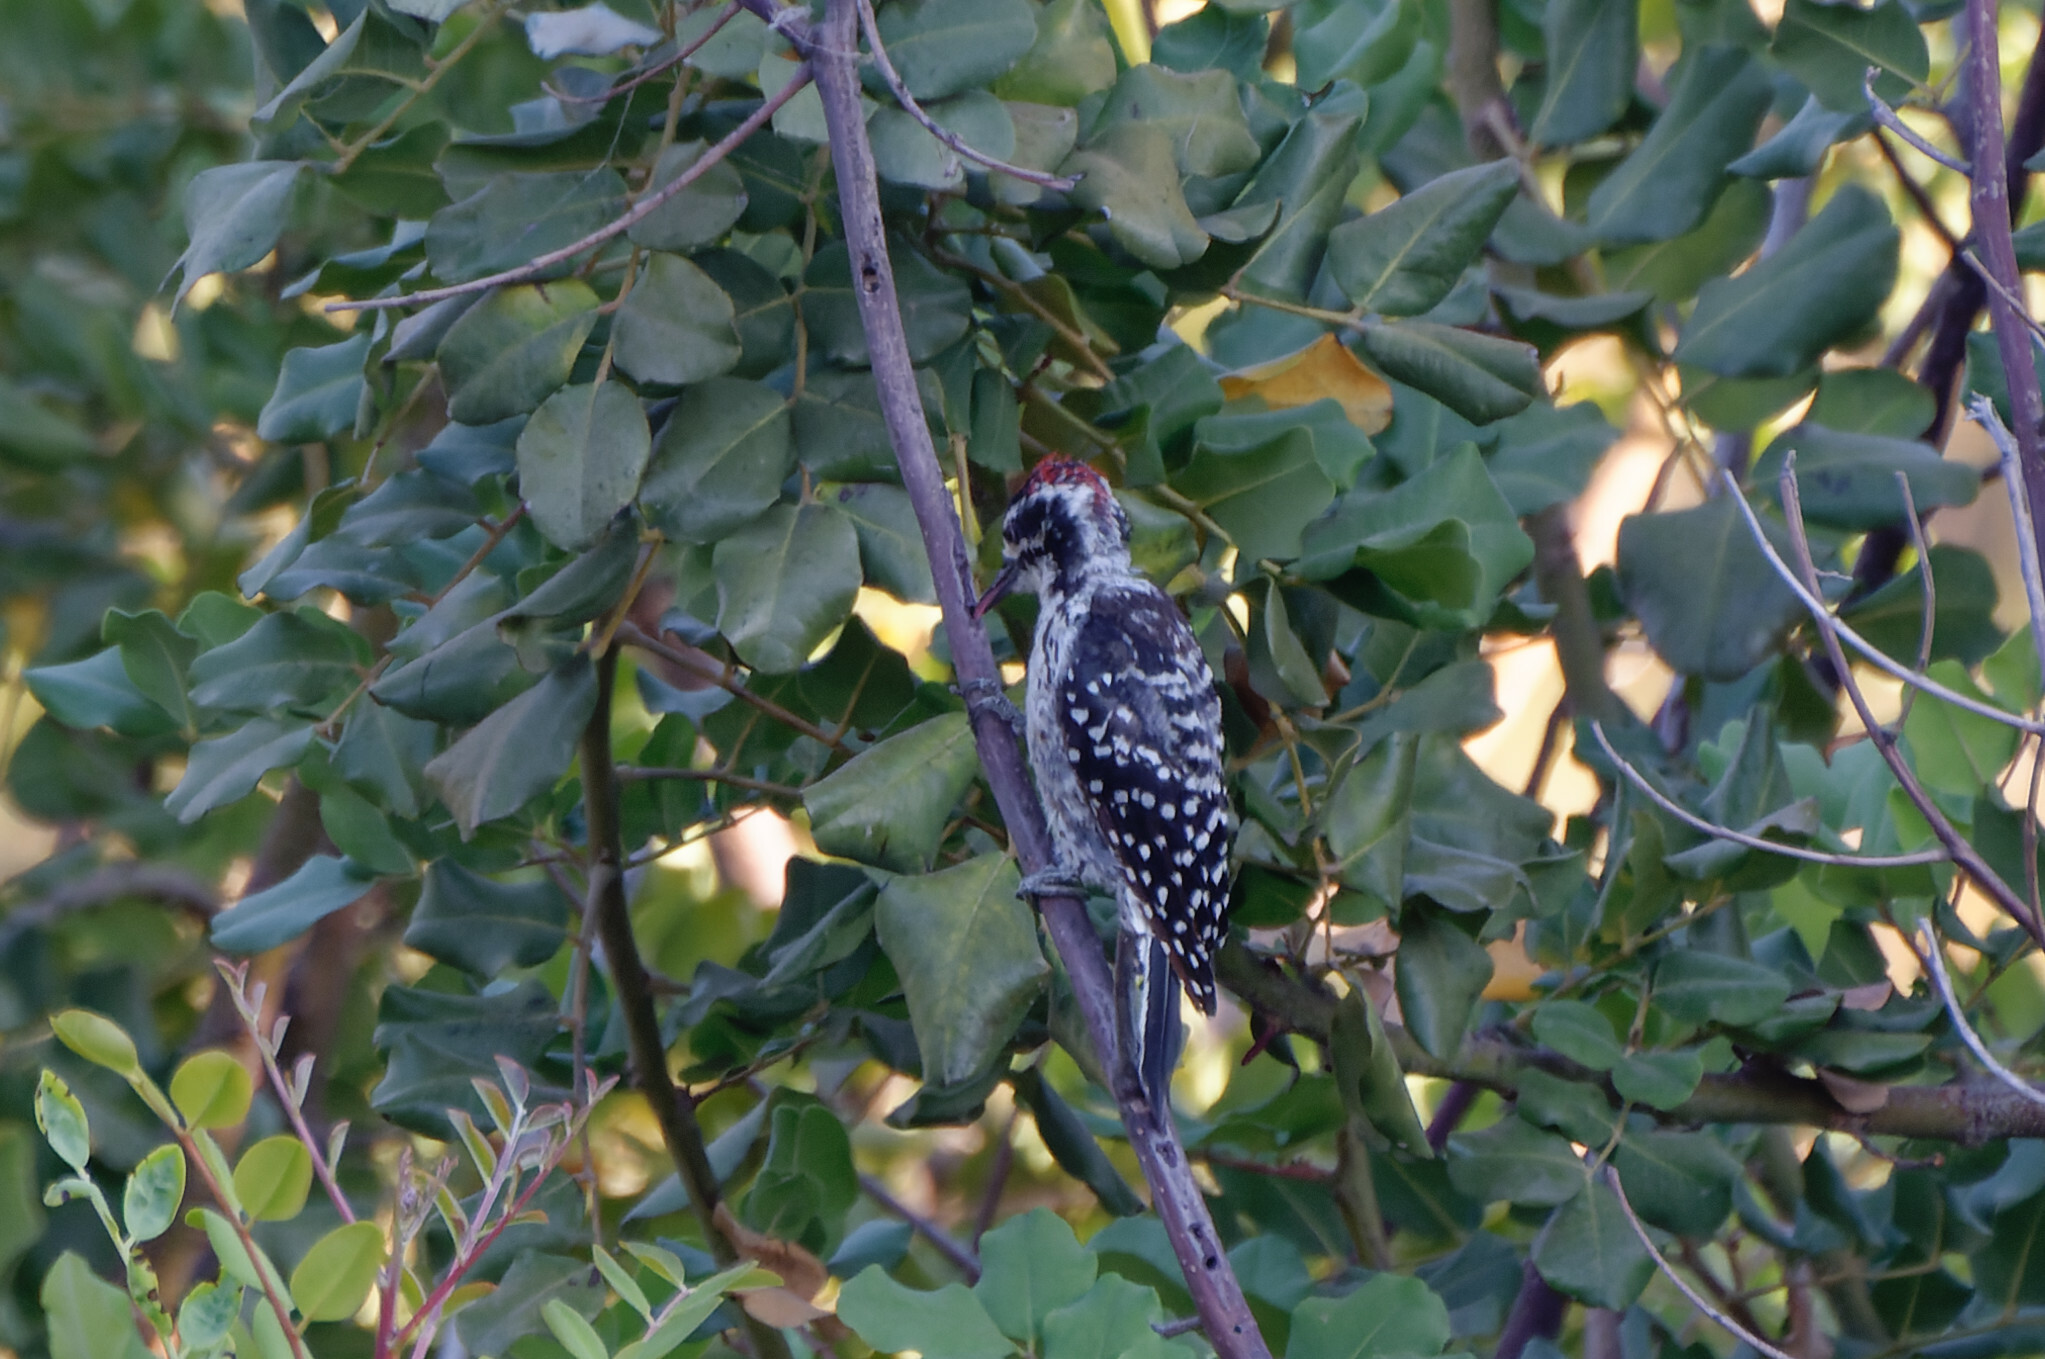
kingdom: Animalia
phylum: Chordata
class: Aves
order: Piciformes
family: Picidae
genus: Dryobates
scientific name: Dryobates nuttallii
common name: Nuttall's woodpecker
